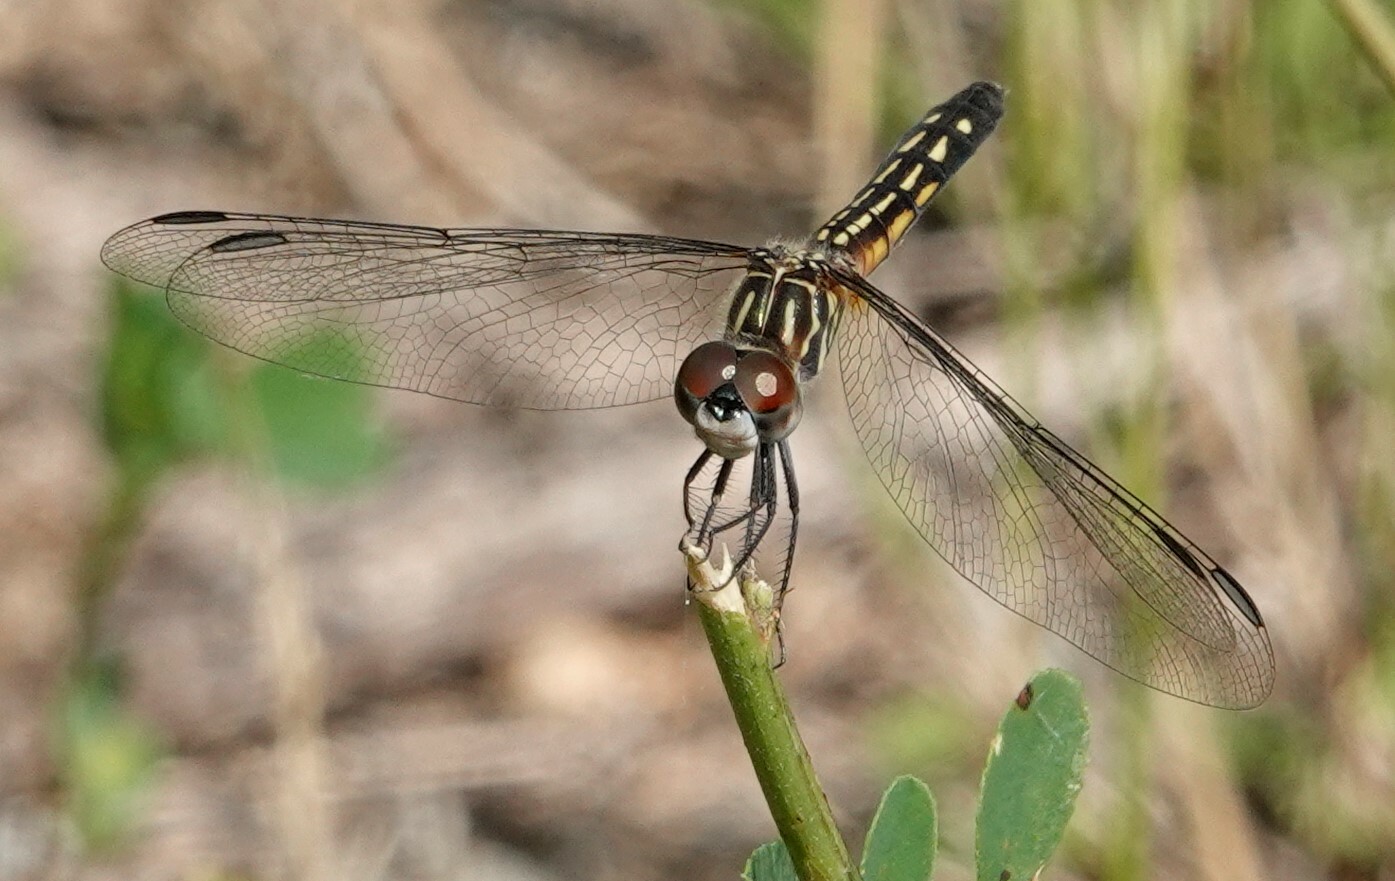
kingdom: Animalia
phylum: Arthropoda
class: Insecta
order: Odonata
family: Libellulidae
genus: Pachydiplax
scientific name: Pachydiplax longipennis
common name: Blue dasher
